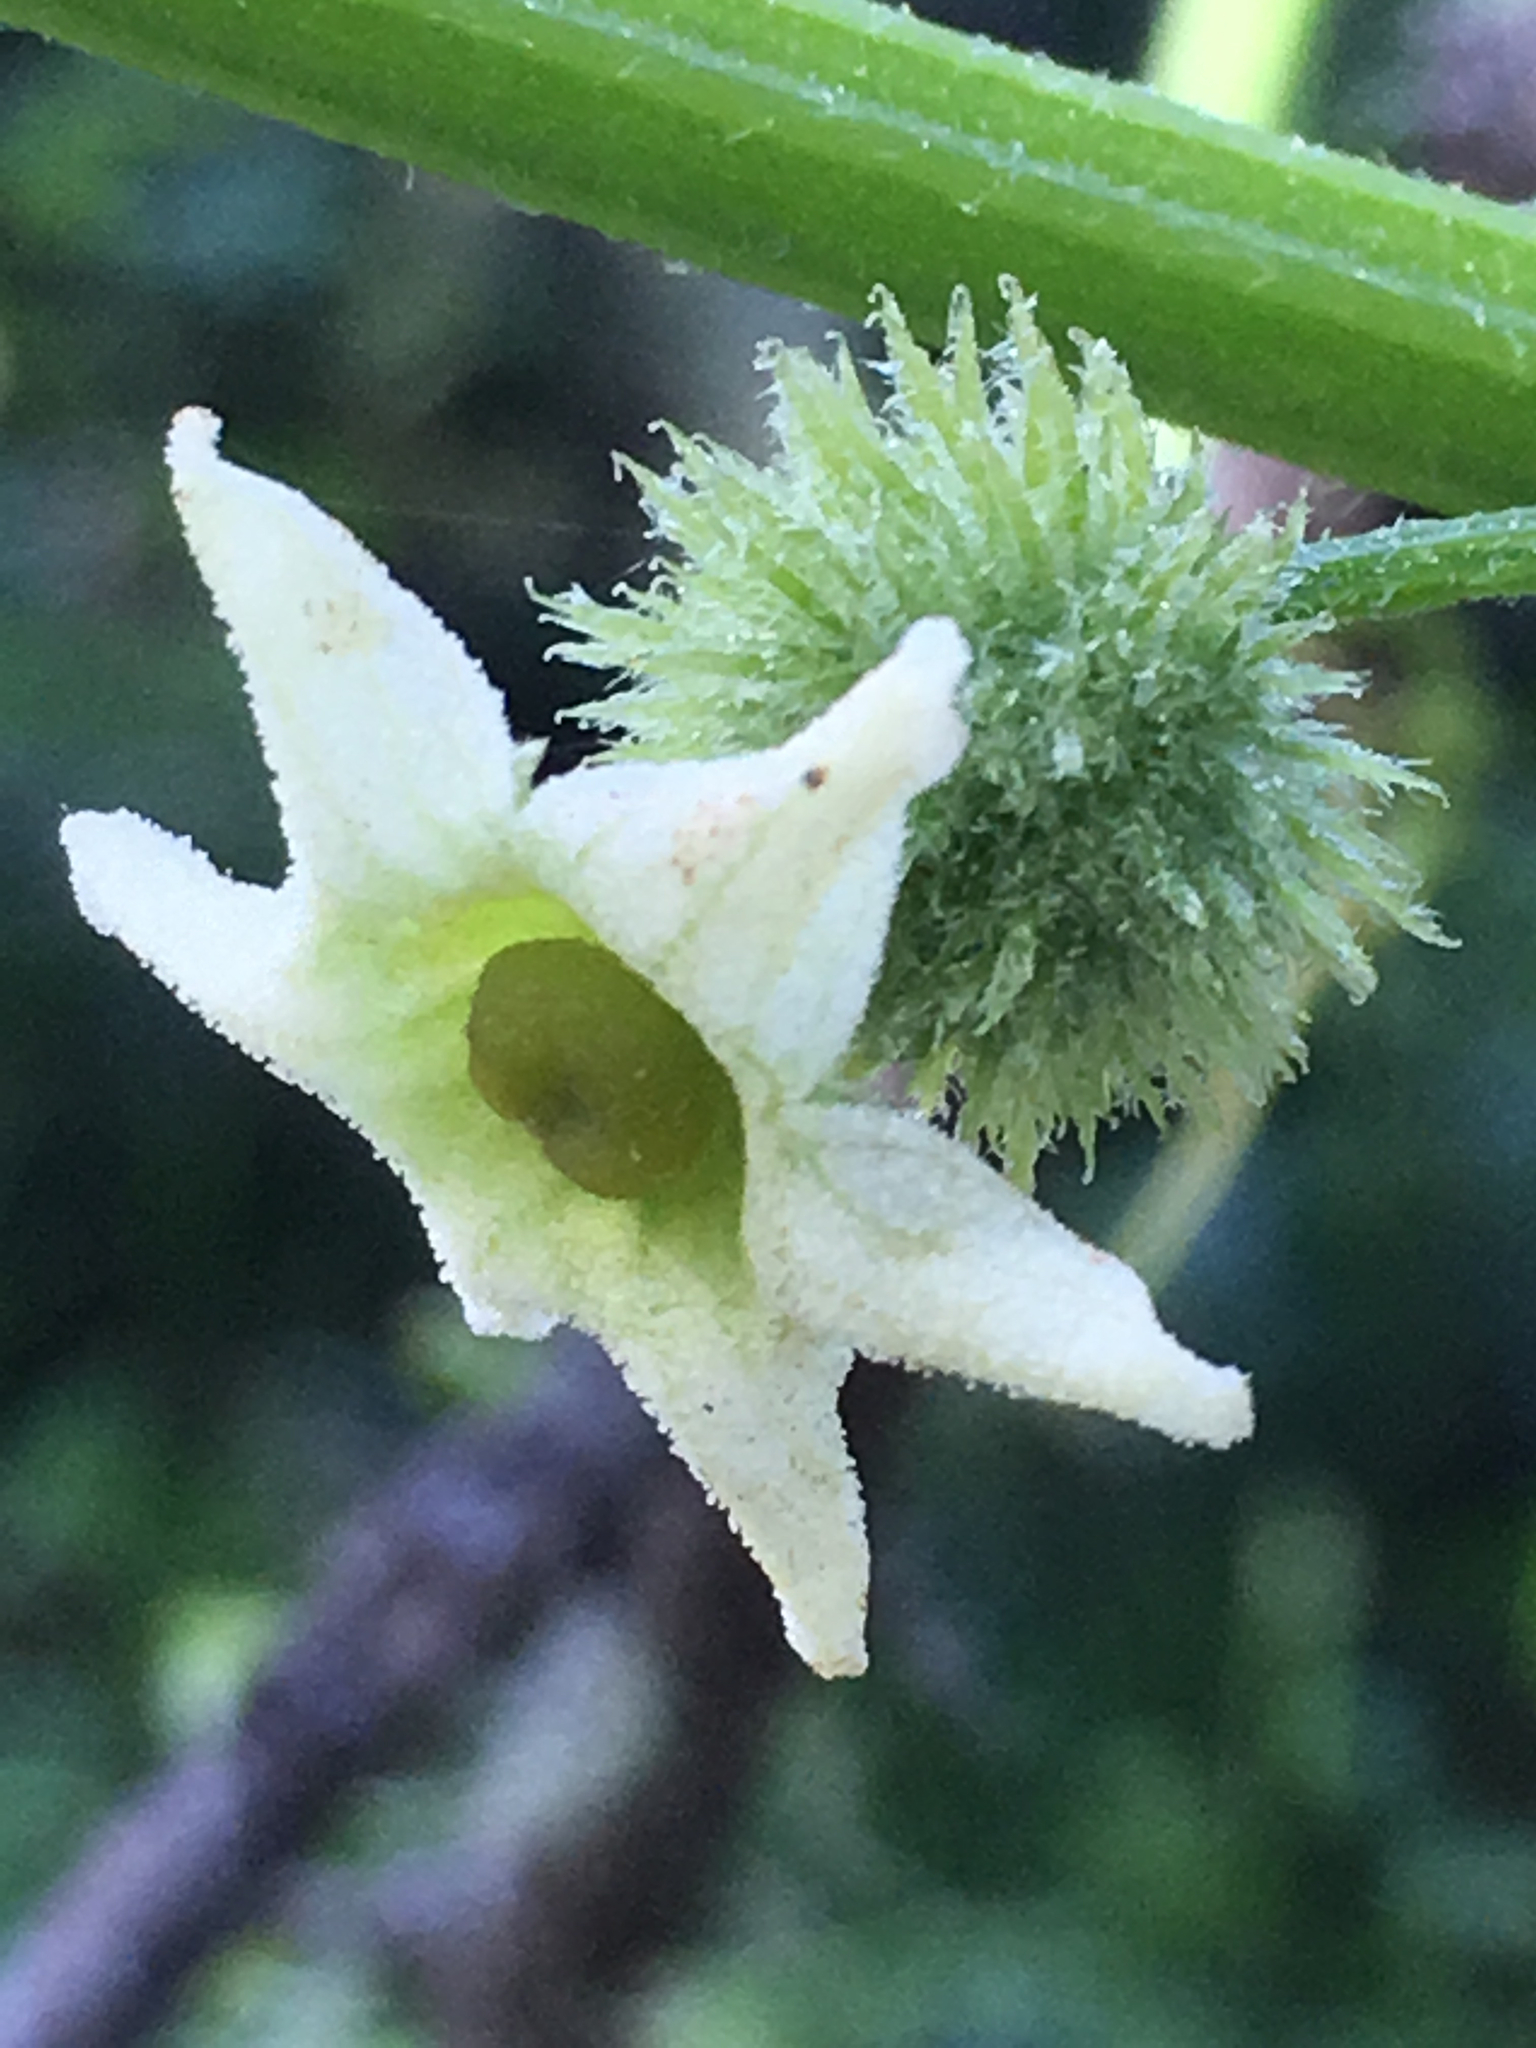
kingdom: Plantae
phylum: Tracheophyta
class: Magnoliopsida
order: Cucurbitales
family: Cucurbitaceae
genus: Marah
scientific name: Marah fabacea
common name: California manroot
